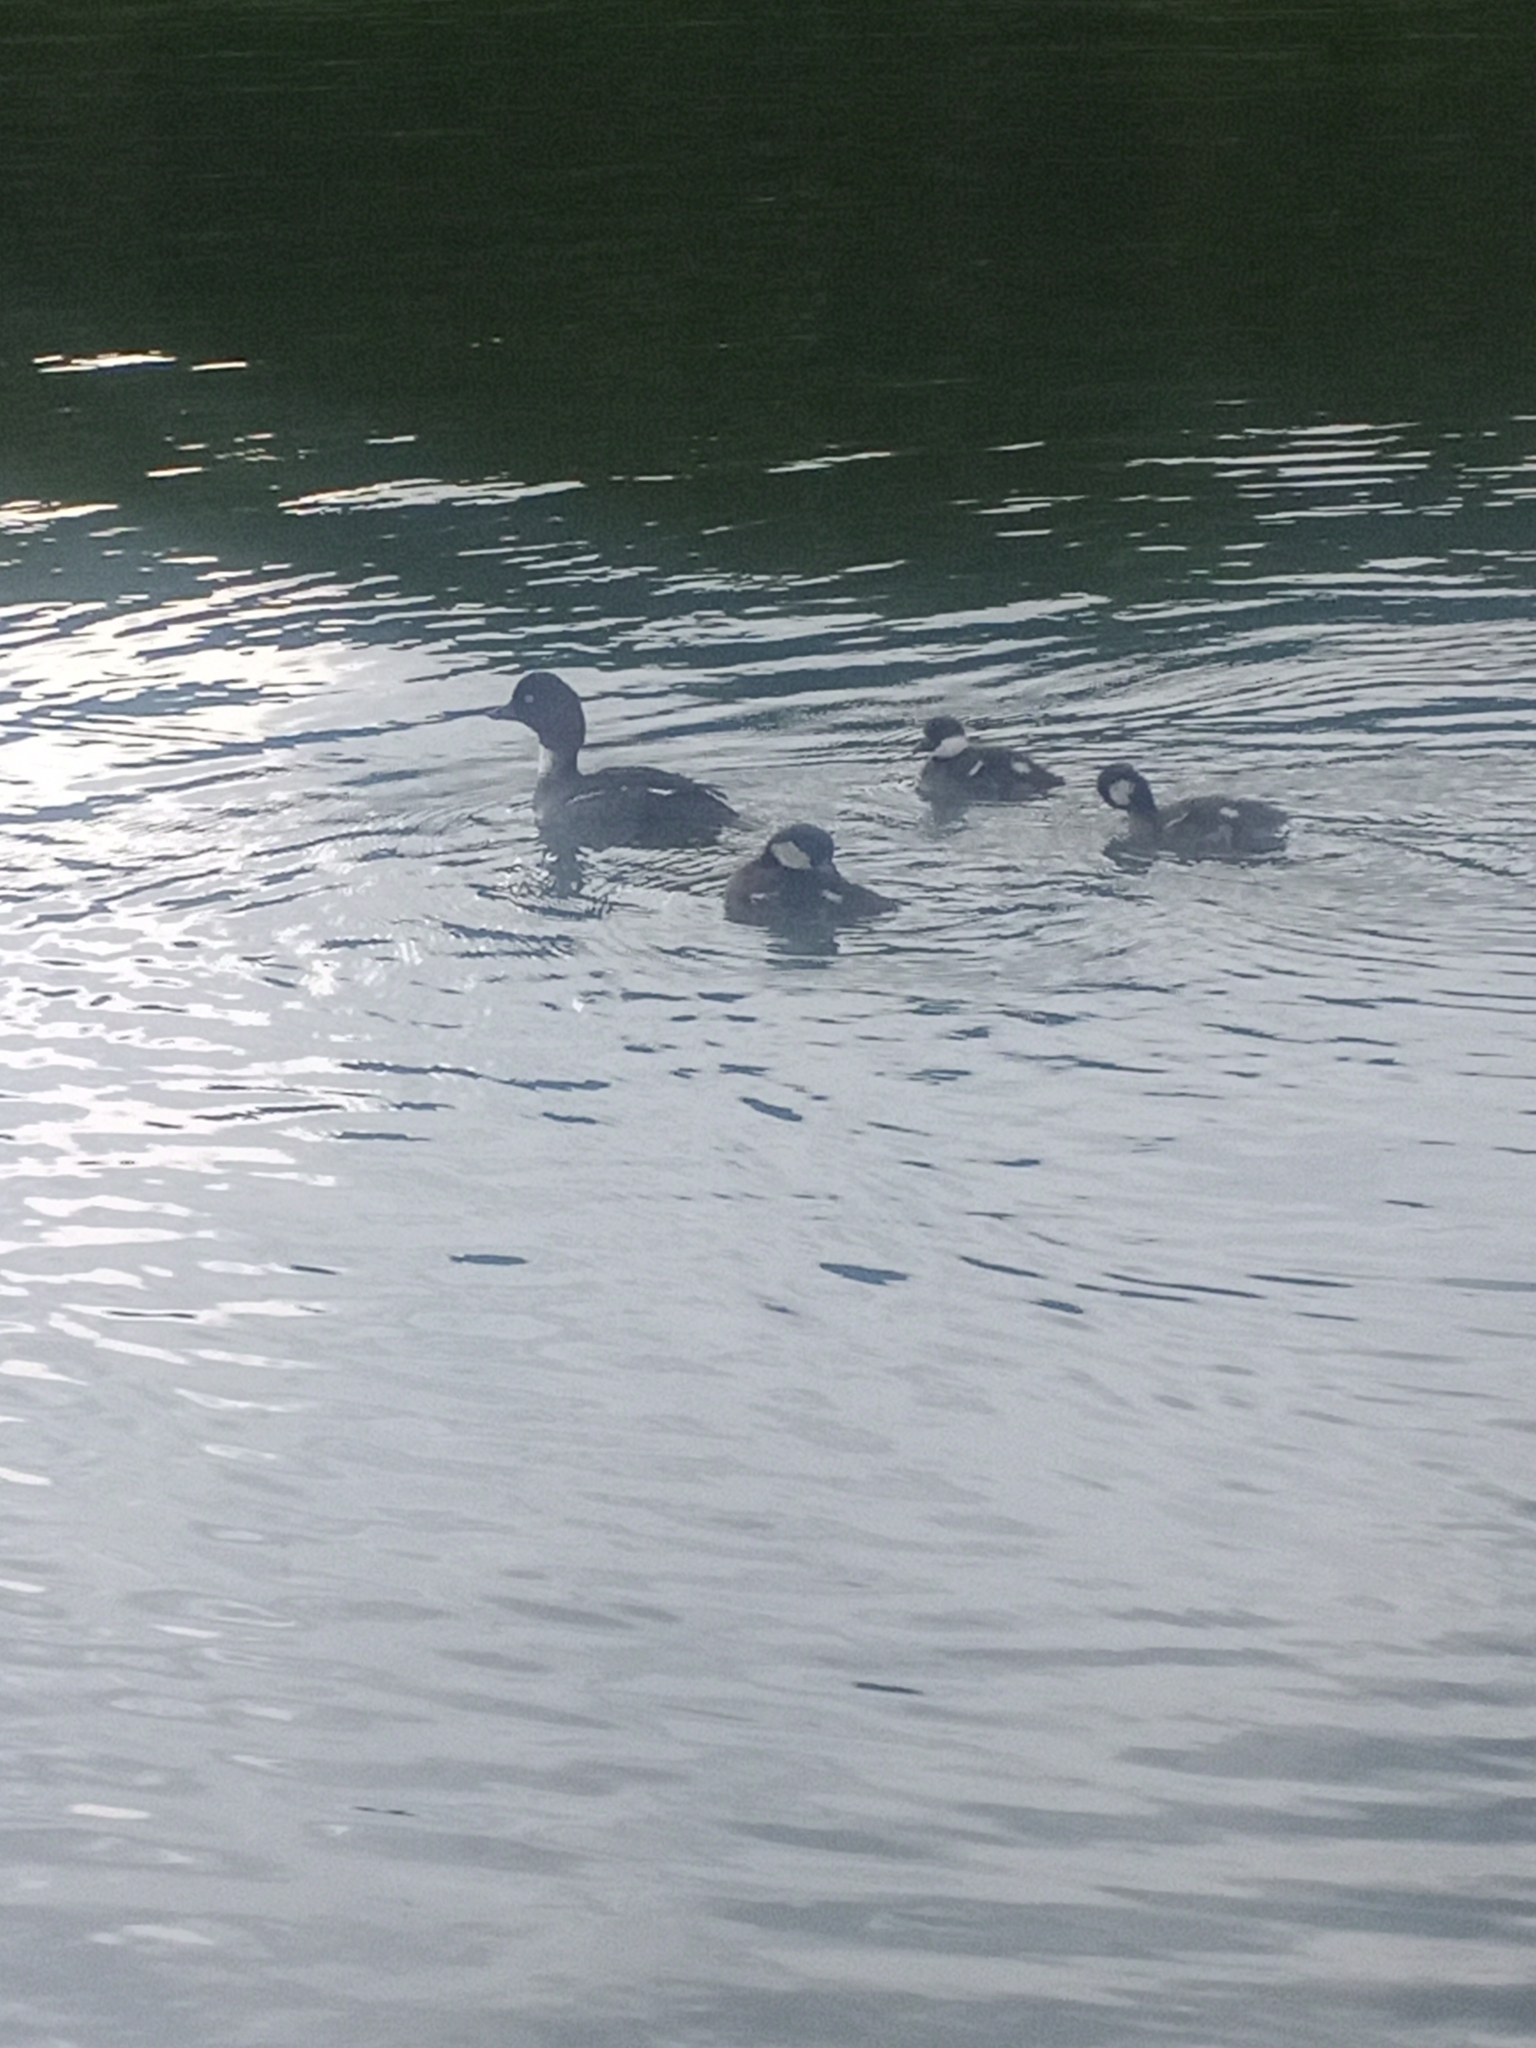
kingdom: Animalia
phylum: Chordata
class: Aves
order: Anseriformes
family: Anatidae
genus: Bucephala
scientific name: Bucephala clangula
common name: Common goldeneye
